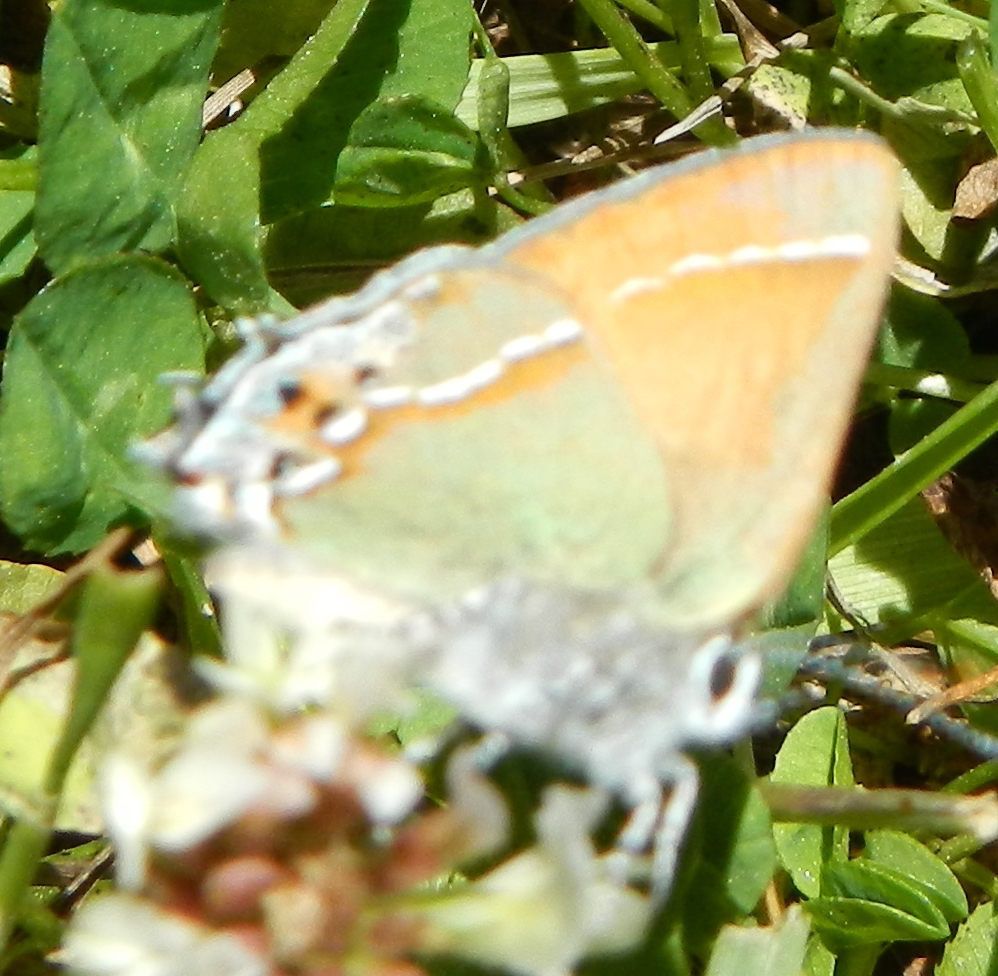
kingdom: Animalia
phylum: Arthropoda
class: Insecta
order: Lepidoptera
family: Lycaenidae
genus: Mitoura
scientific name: Mitoura gryneus
